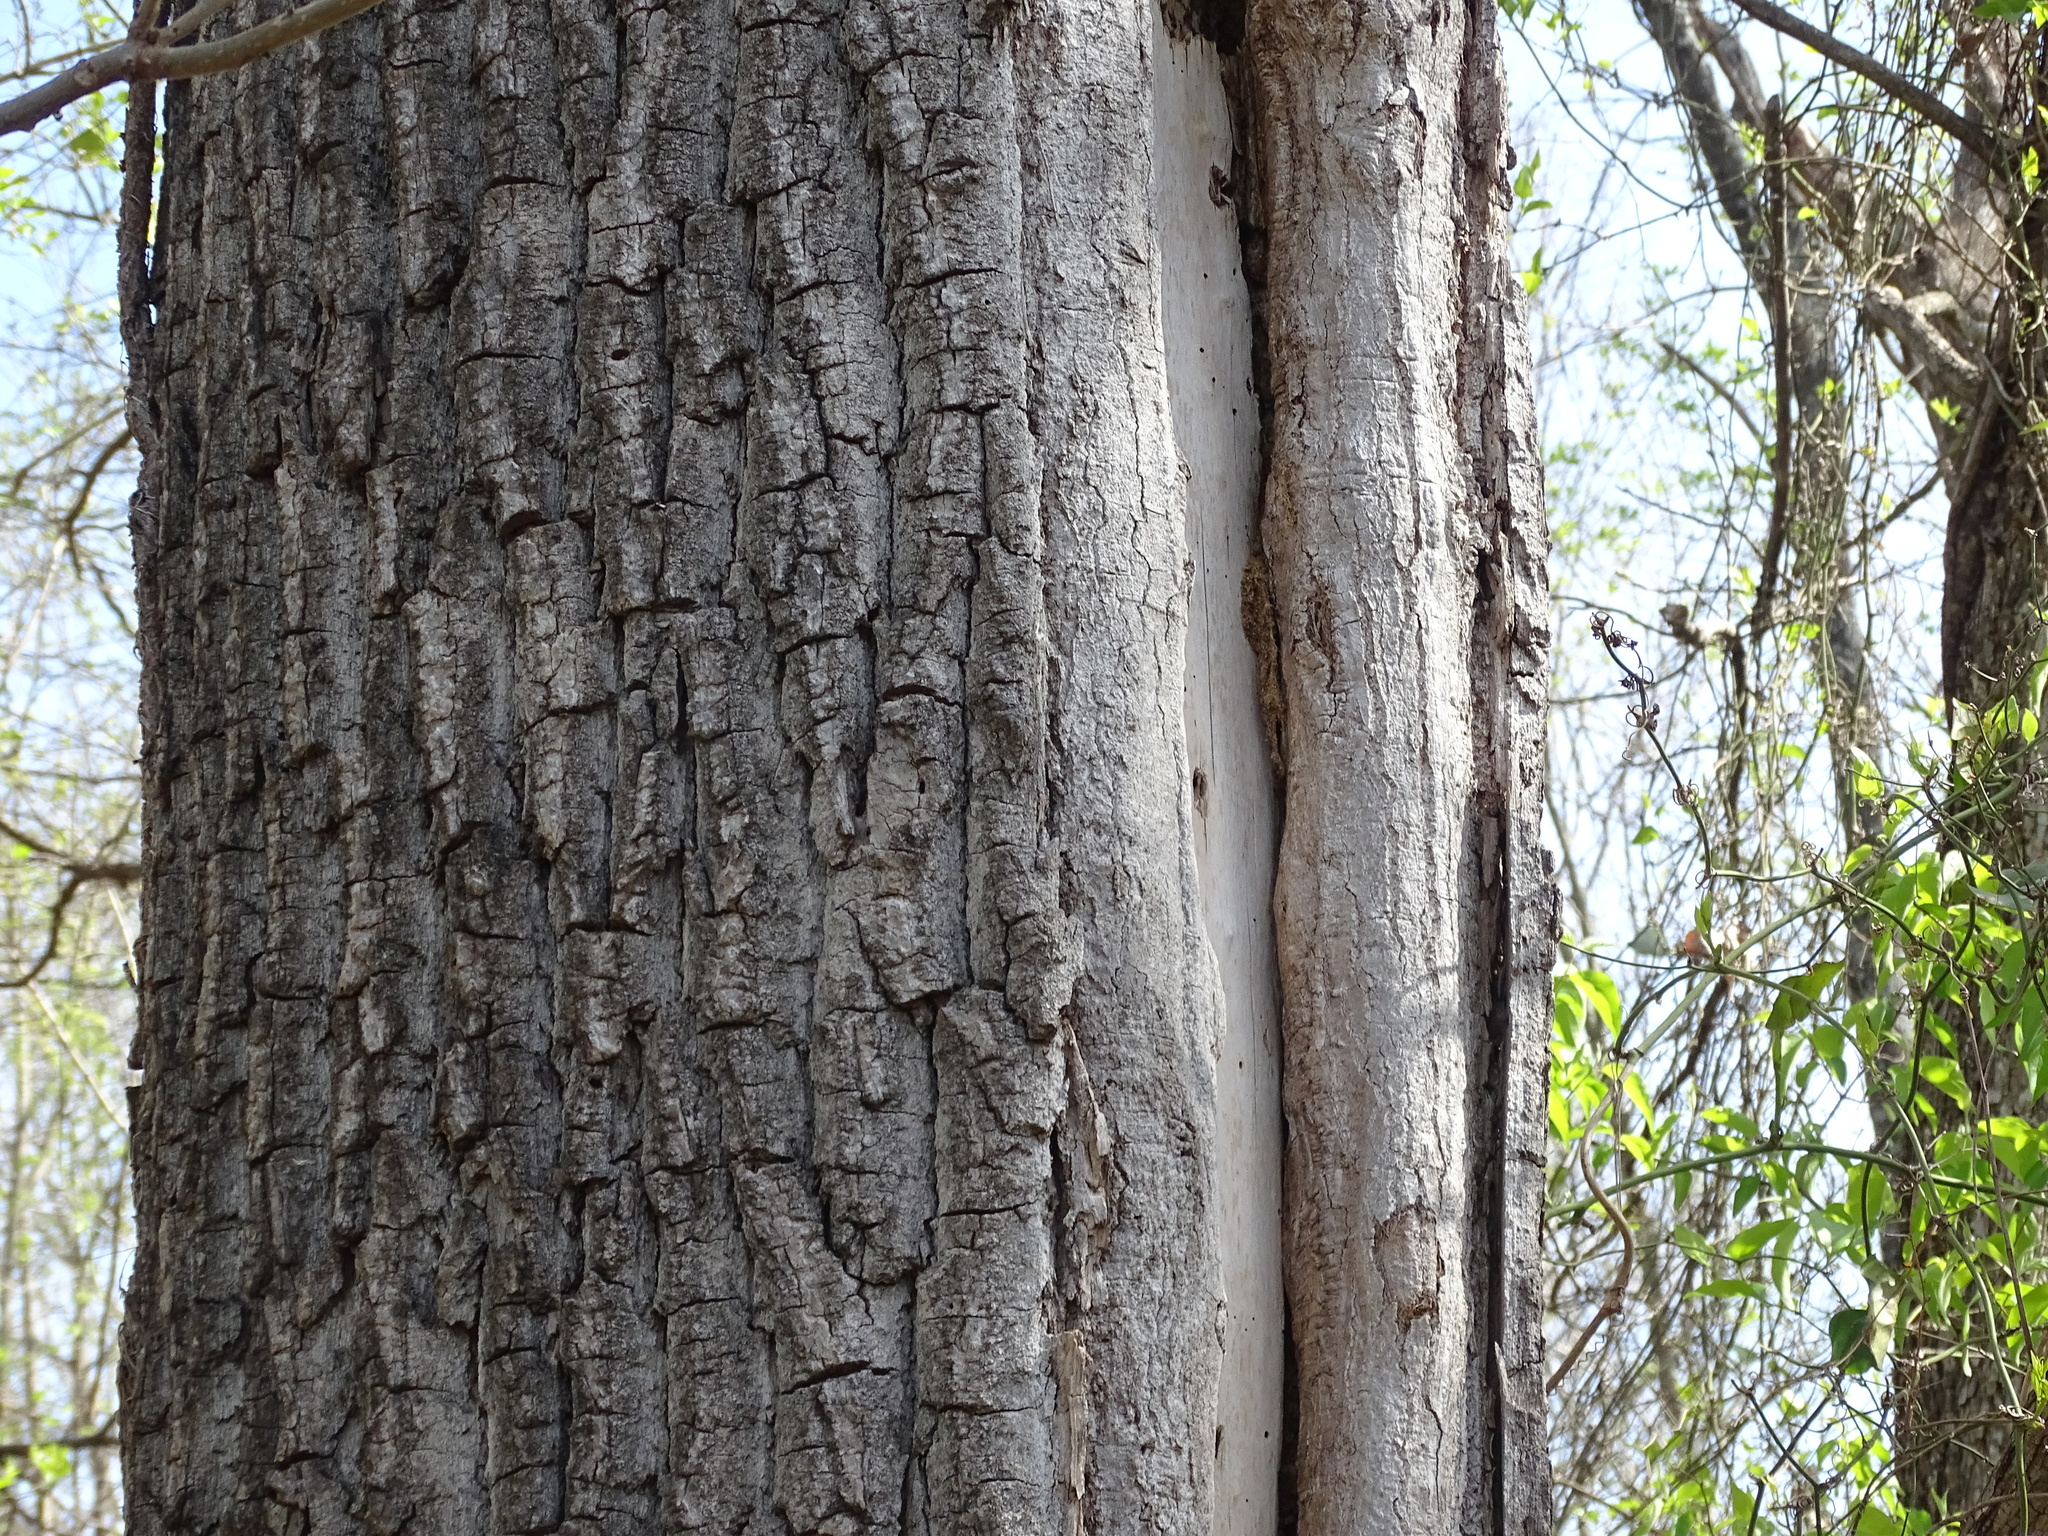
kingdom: Plantae
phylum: Tracheophyta
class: Magnoliopsida
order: Malpighiales
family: Salicaceae
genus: Populus
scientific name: Populus deltoides
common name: Eastern cottonwood
